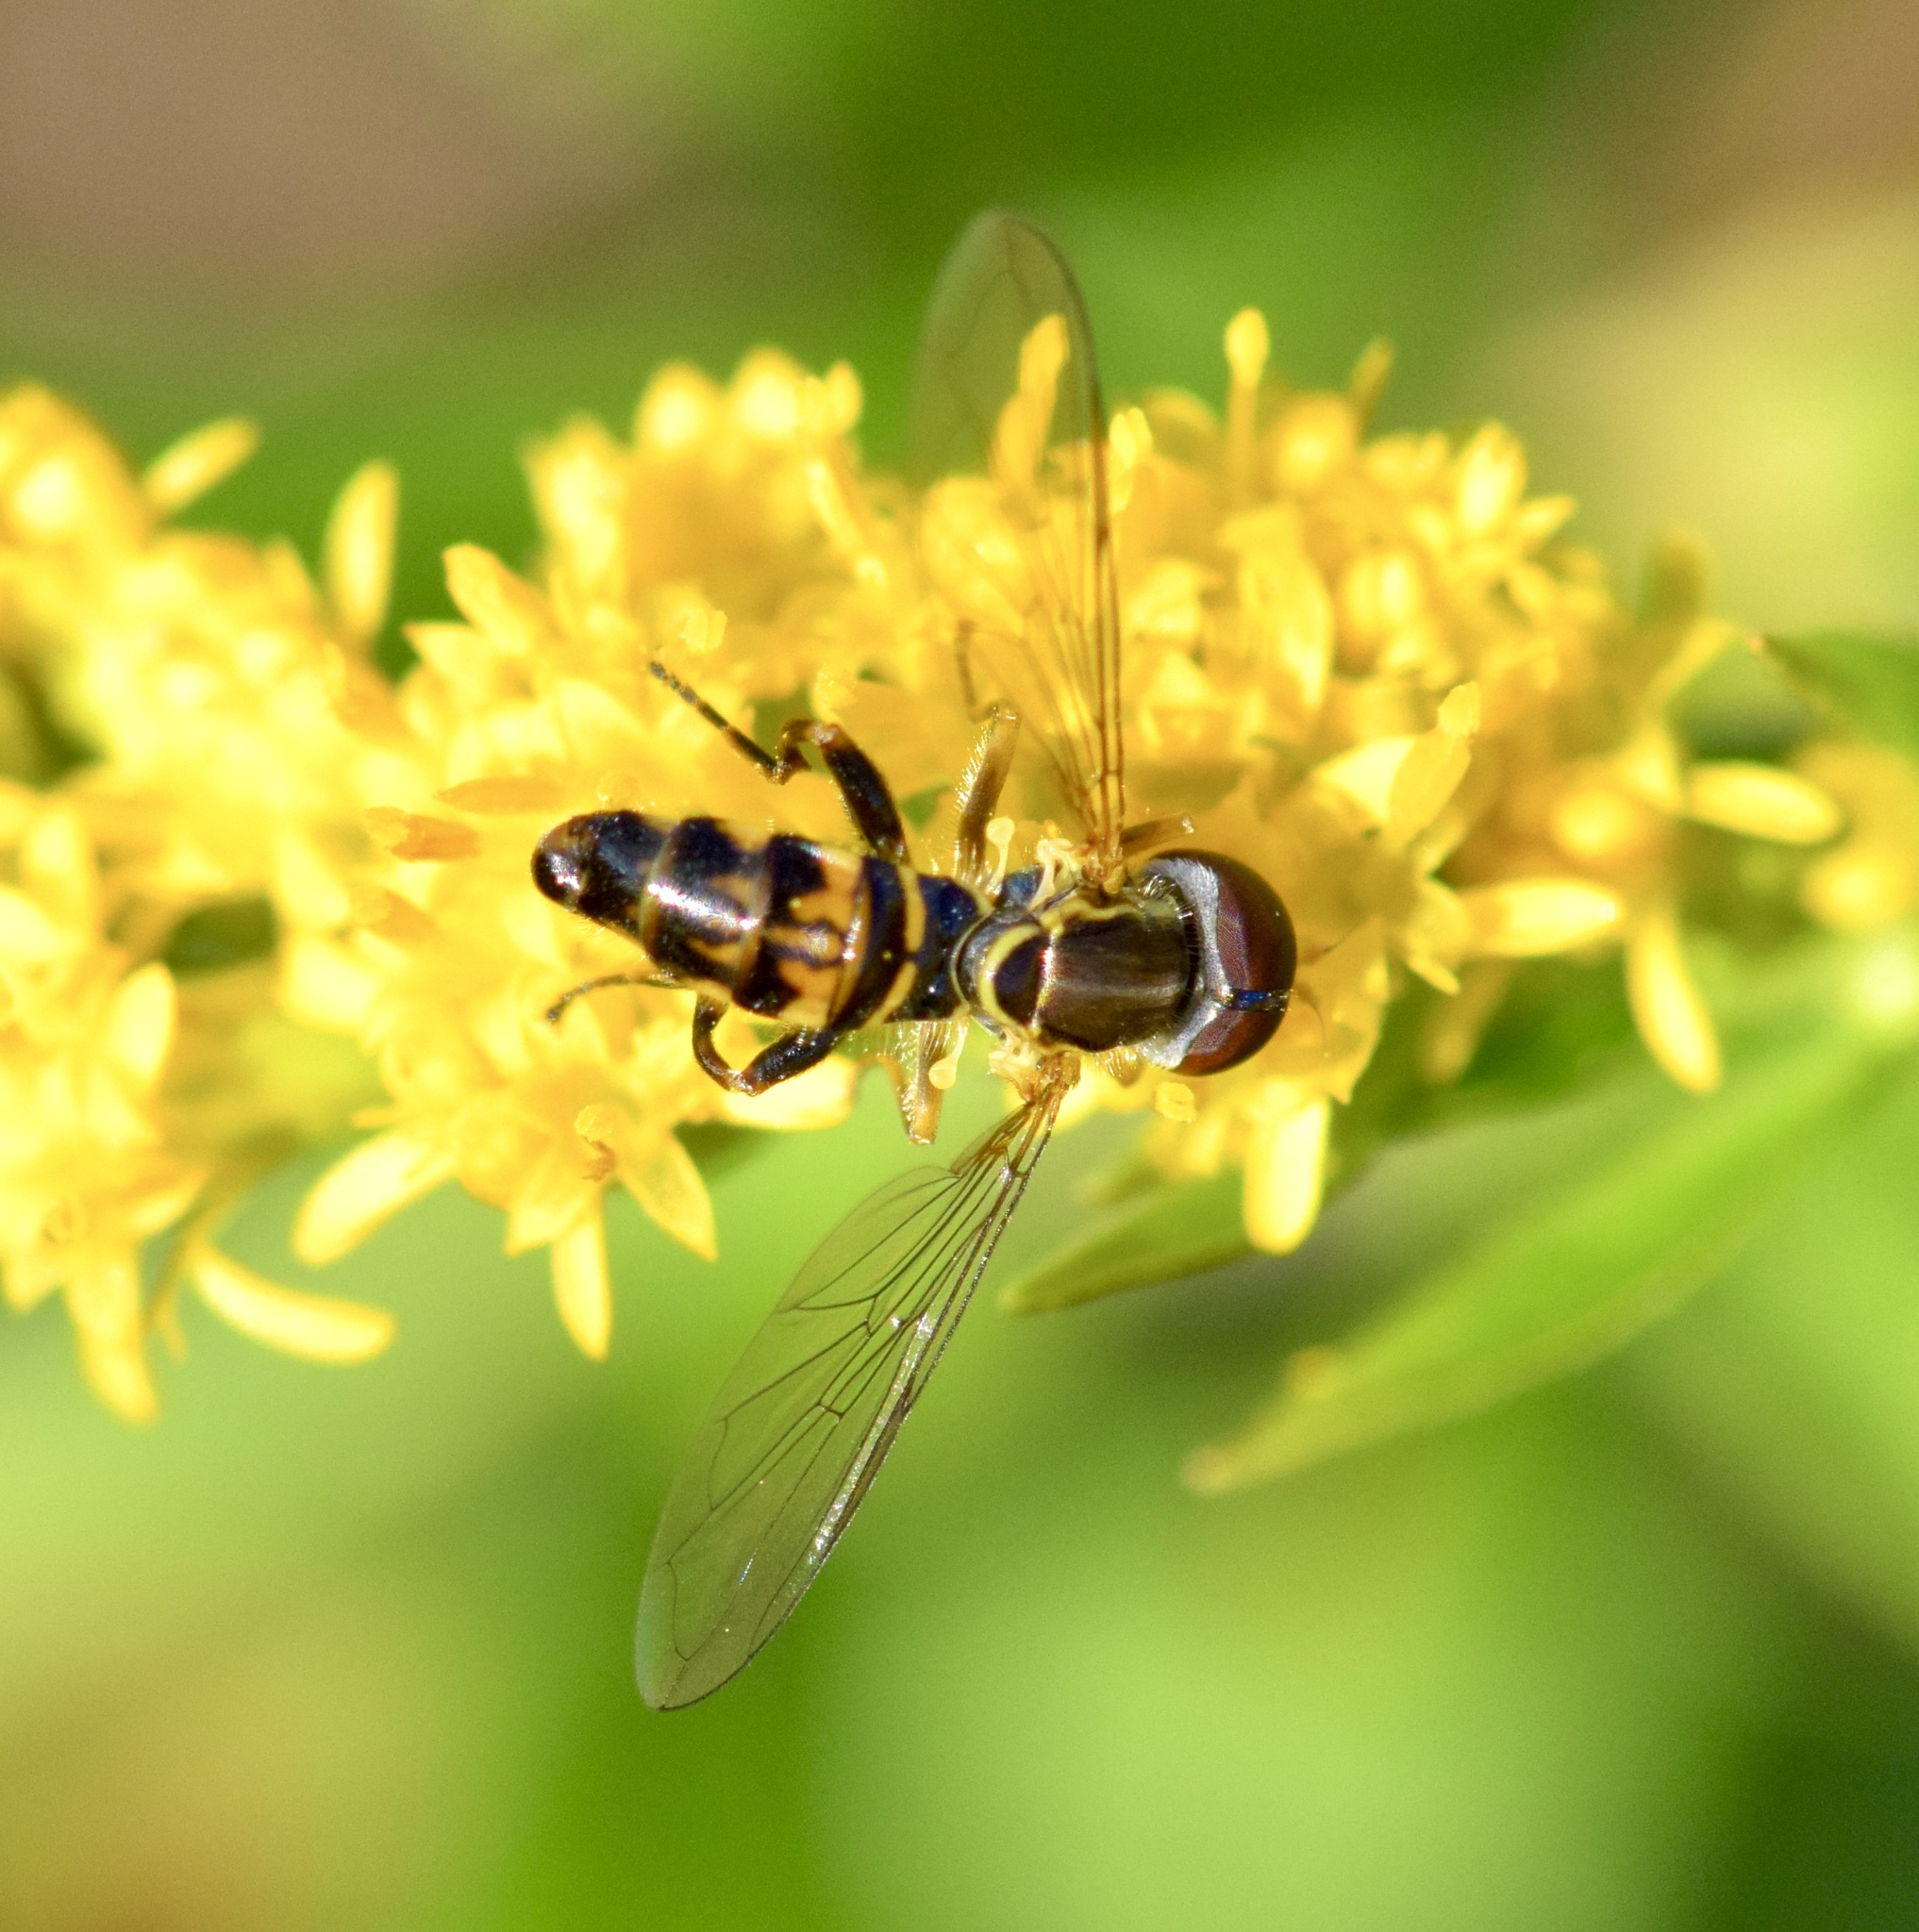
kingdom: Animalia
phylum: Arthropoda
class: Insecta
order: Diptera
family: Syrphidae
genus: Toxomerus
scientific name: Toxomerus geminatus
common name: Eastern calligrapher
